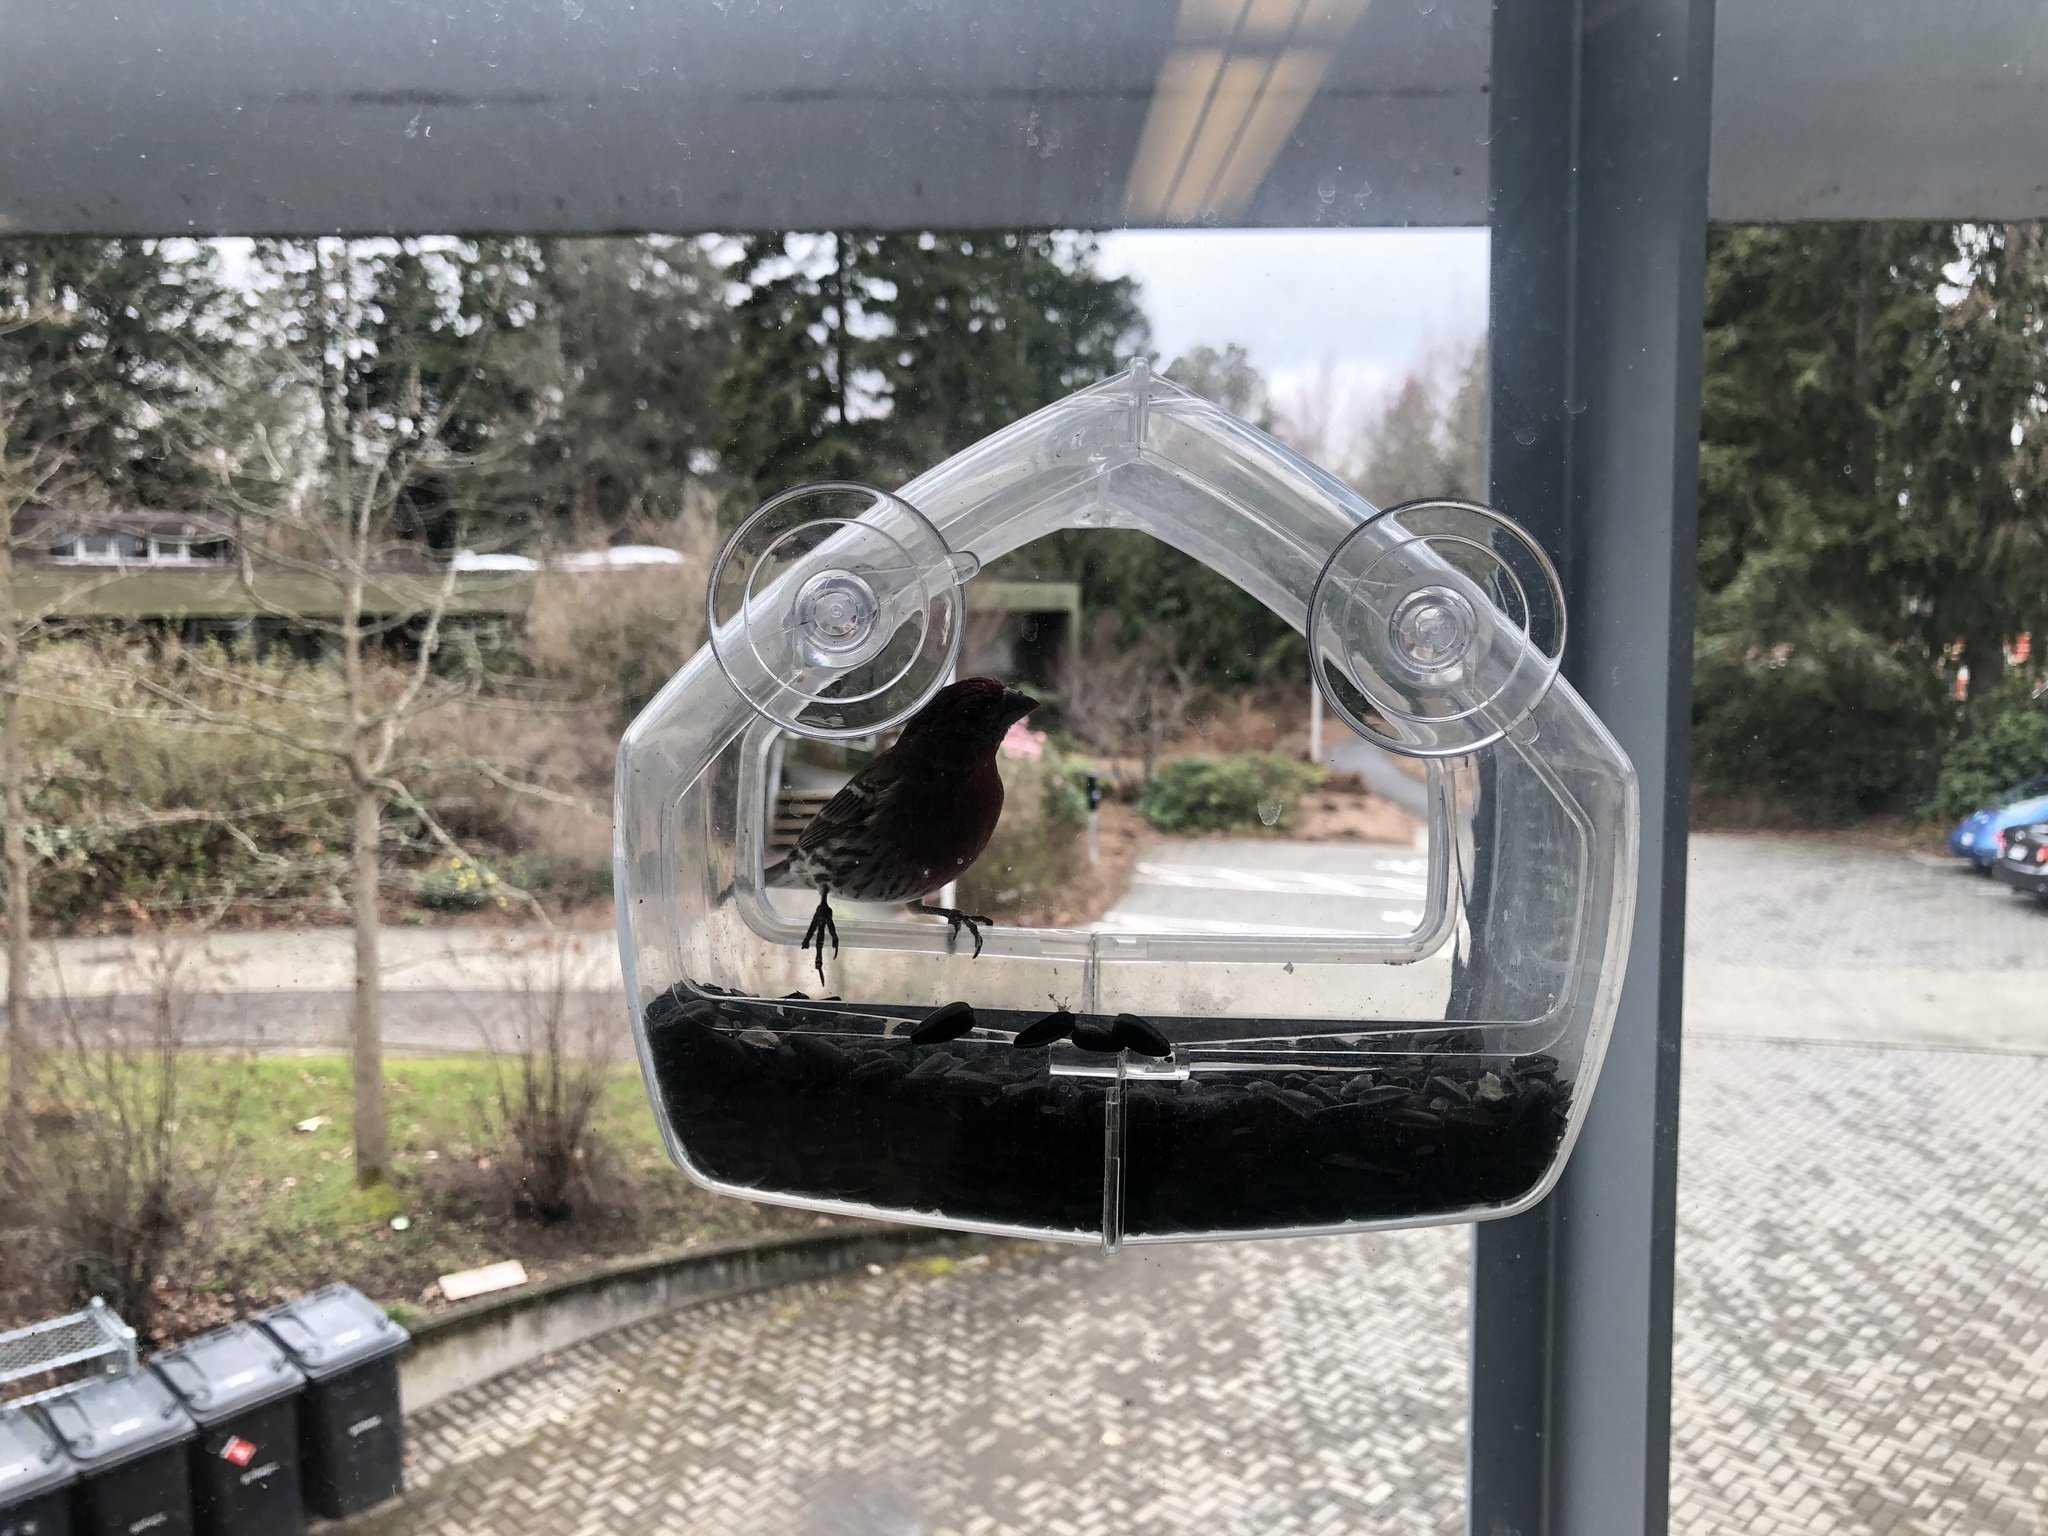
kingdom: Animalia
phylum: Chordata
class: Aves
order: Passeriformes
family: Fringillidae
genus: Haemorhous
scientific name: Haemorhous mexicanus
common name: House finch
